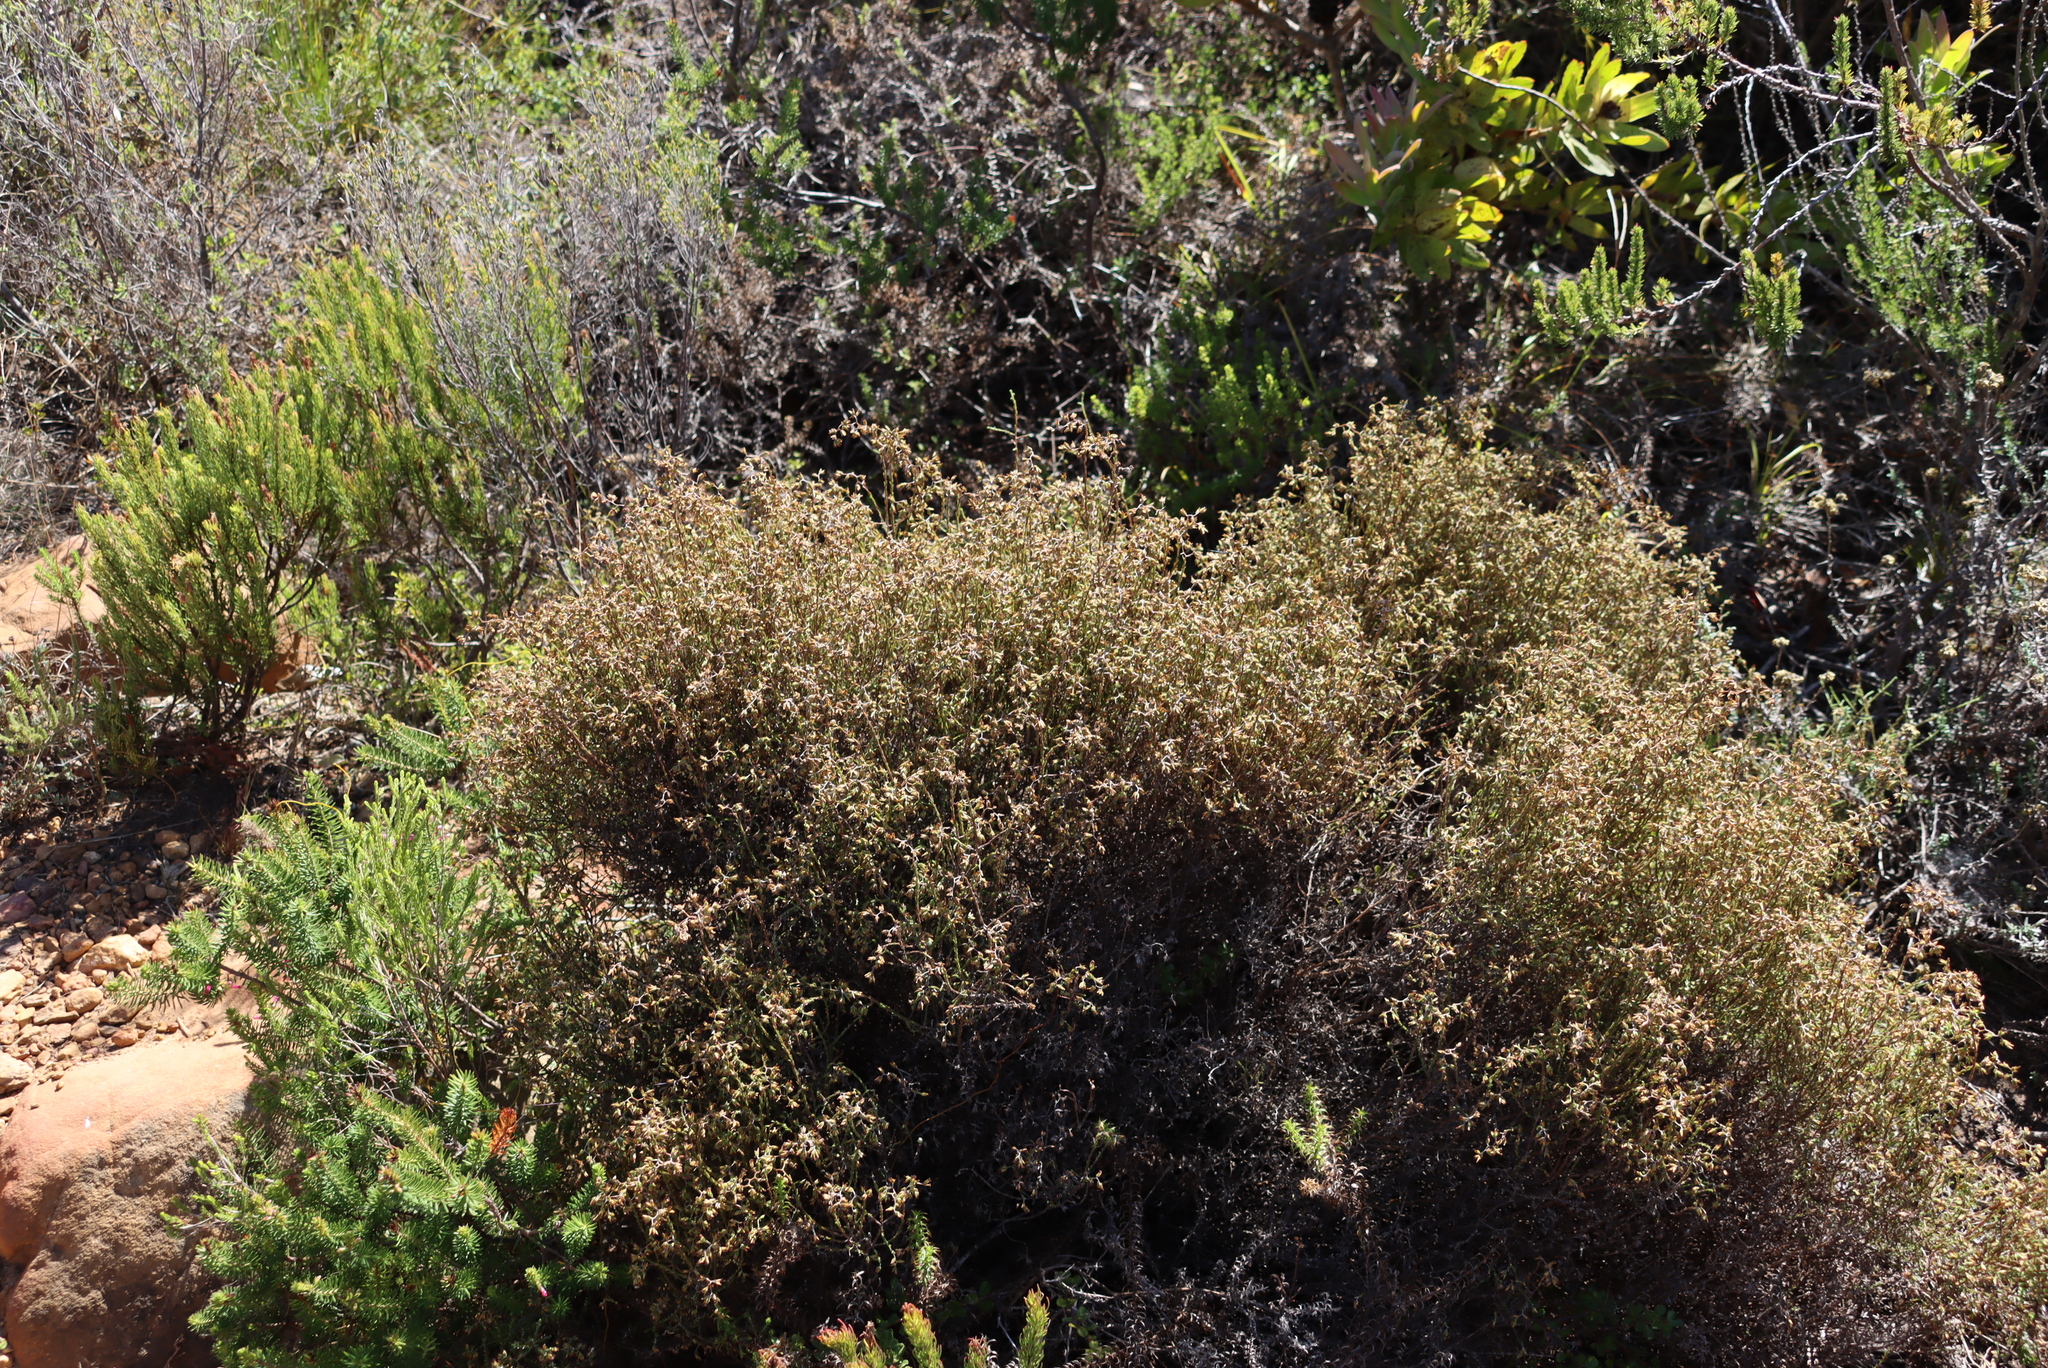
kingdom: Plantae
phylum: Tracheophyta
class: Magnoliopsida
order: Asterales
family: Asteraceae
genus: Myrovernix
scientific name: Myrovernix scaber
